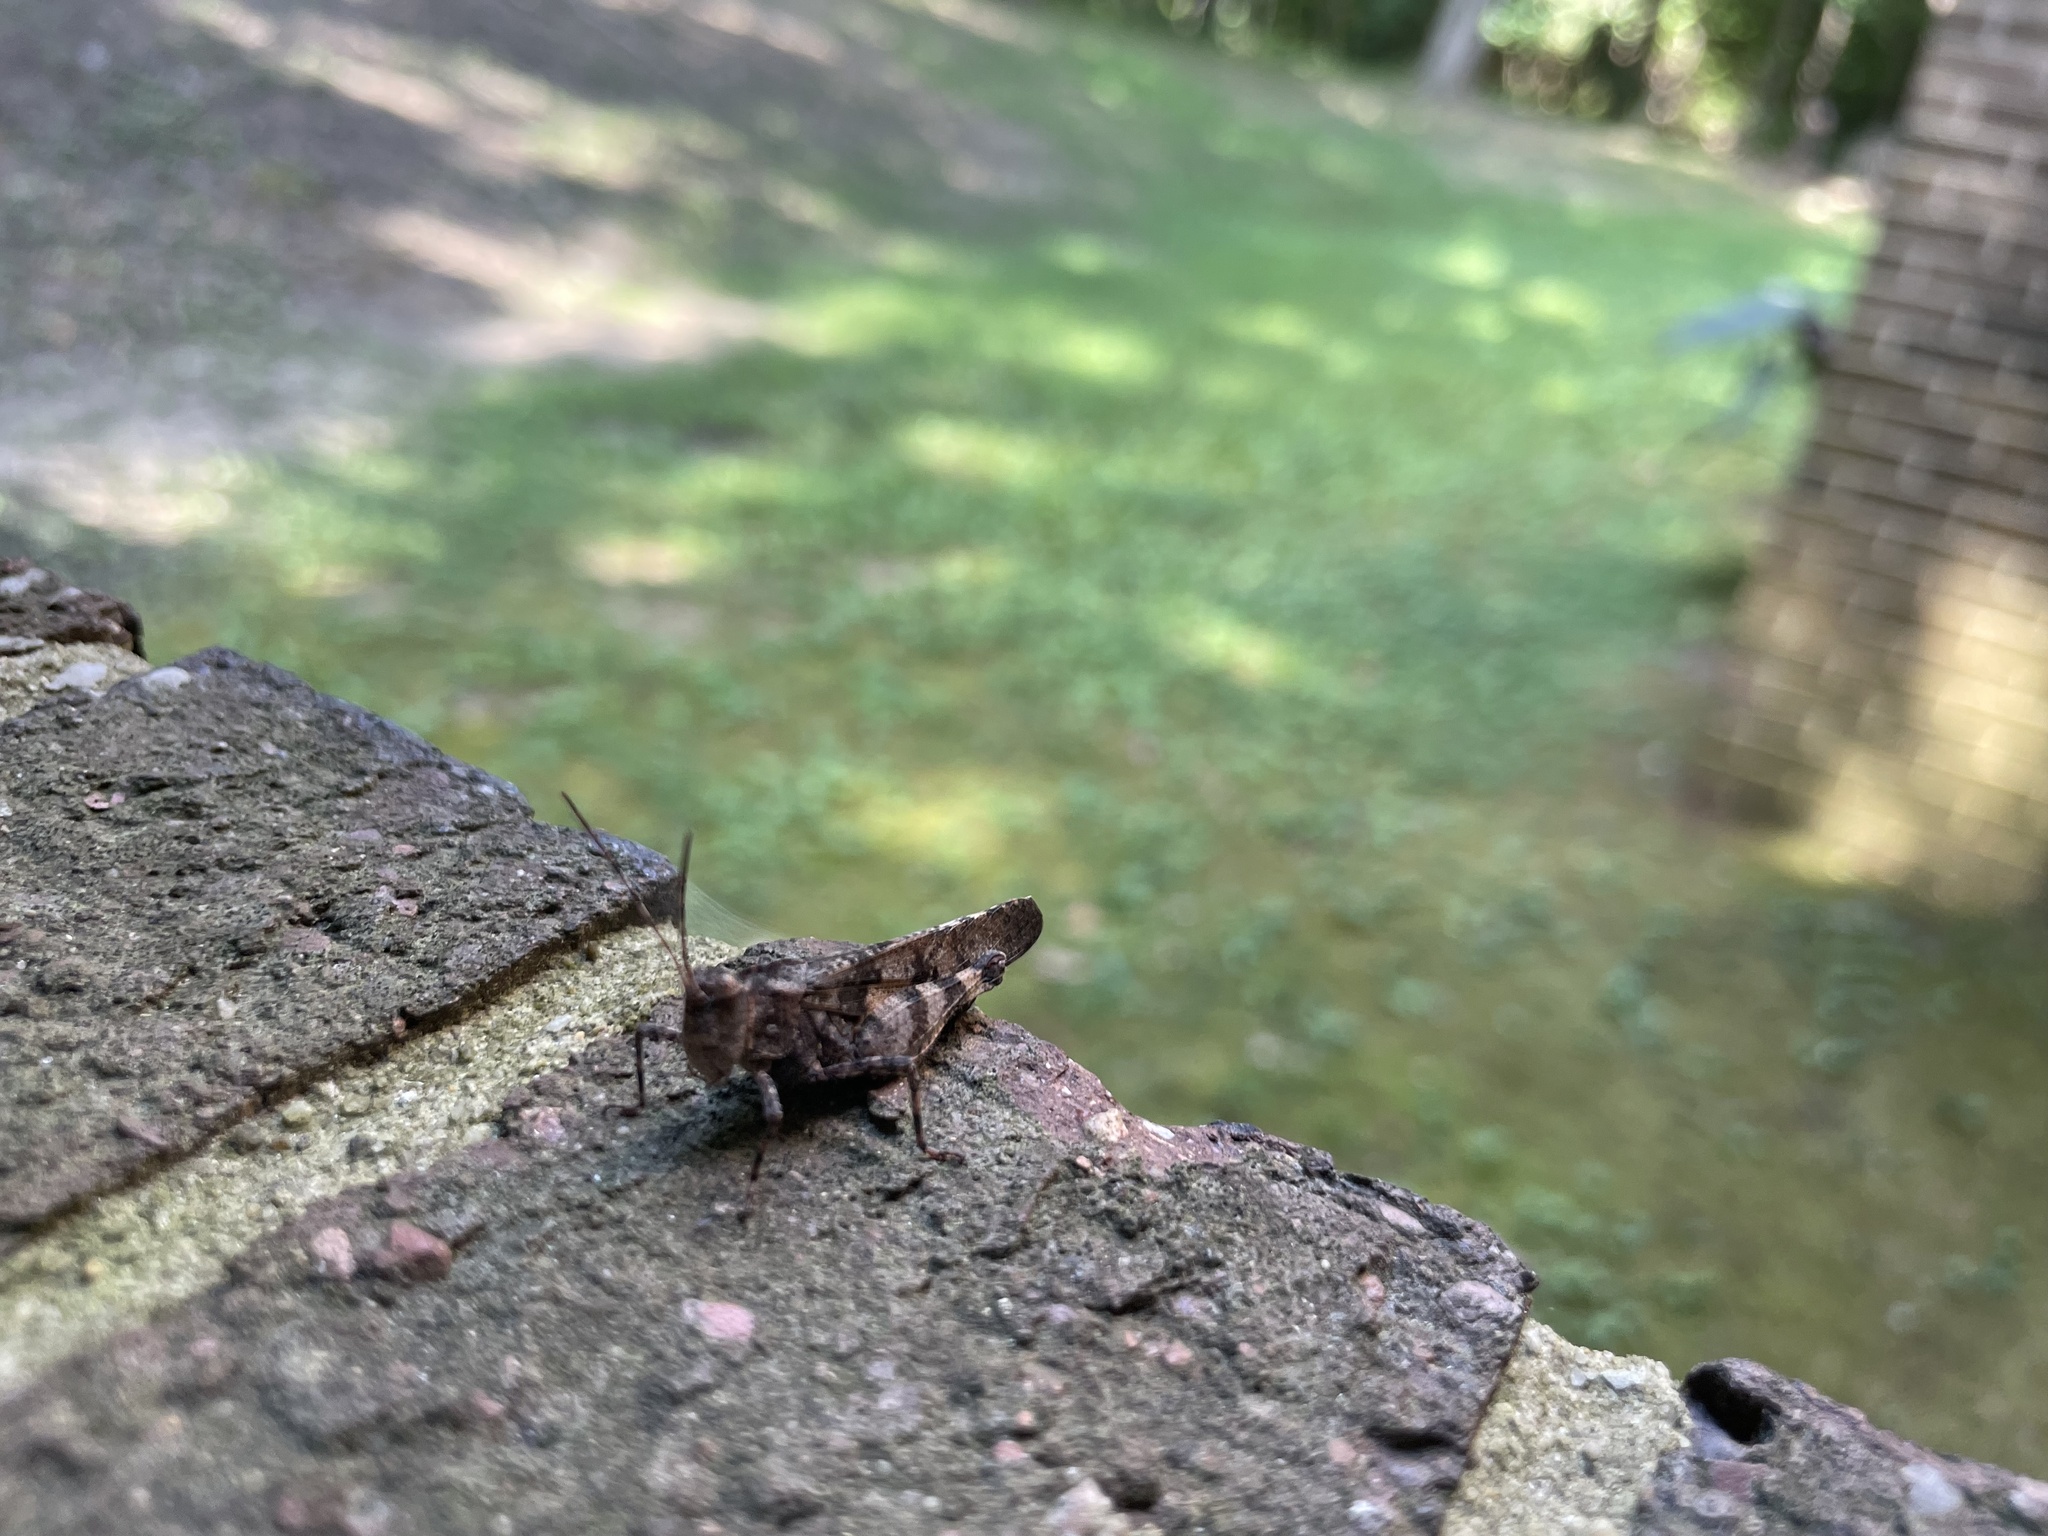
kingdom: Animalia
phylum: Arthropoda
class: Insecta
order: Orthoptera
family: Acrididae
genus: Spharagemon
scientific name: Spharagemon bolli
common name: Boll's grasshopper
